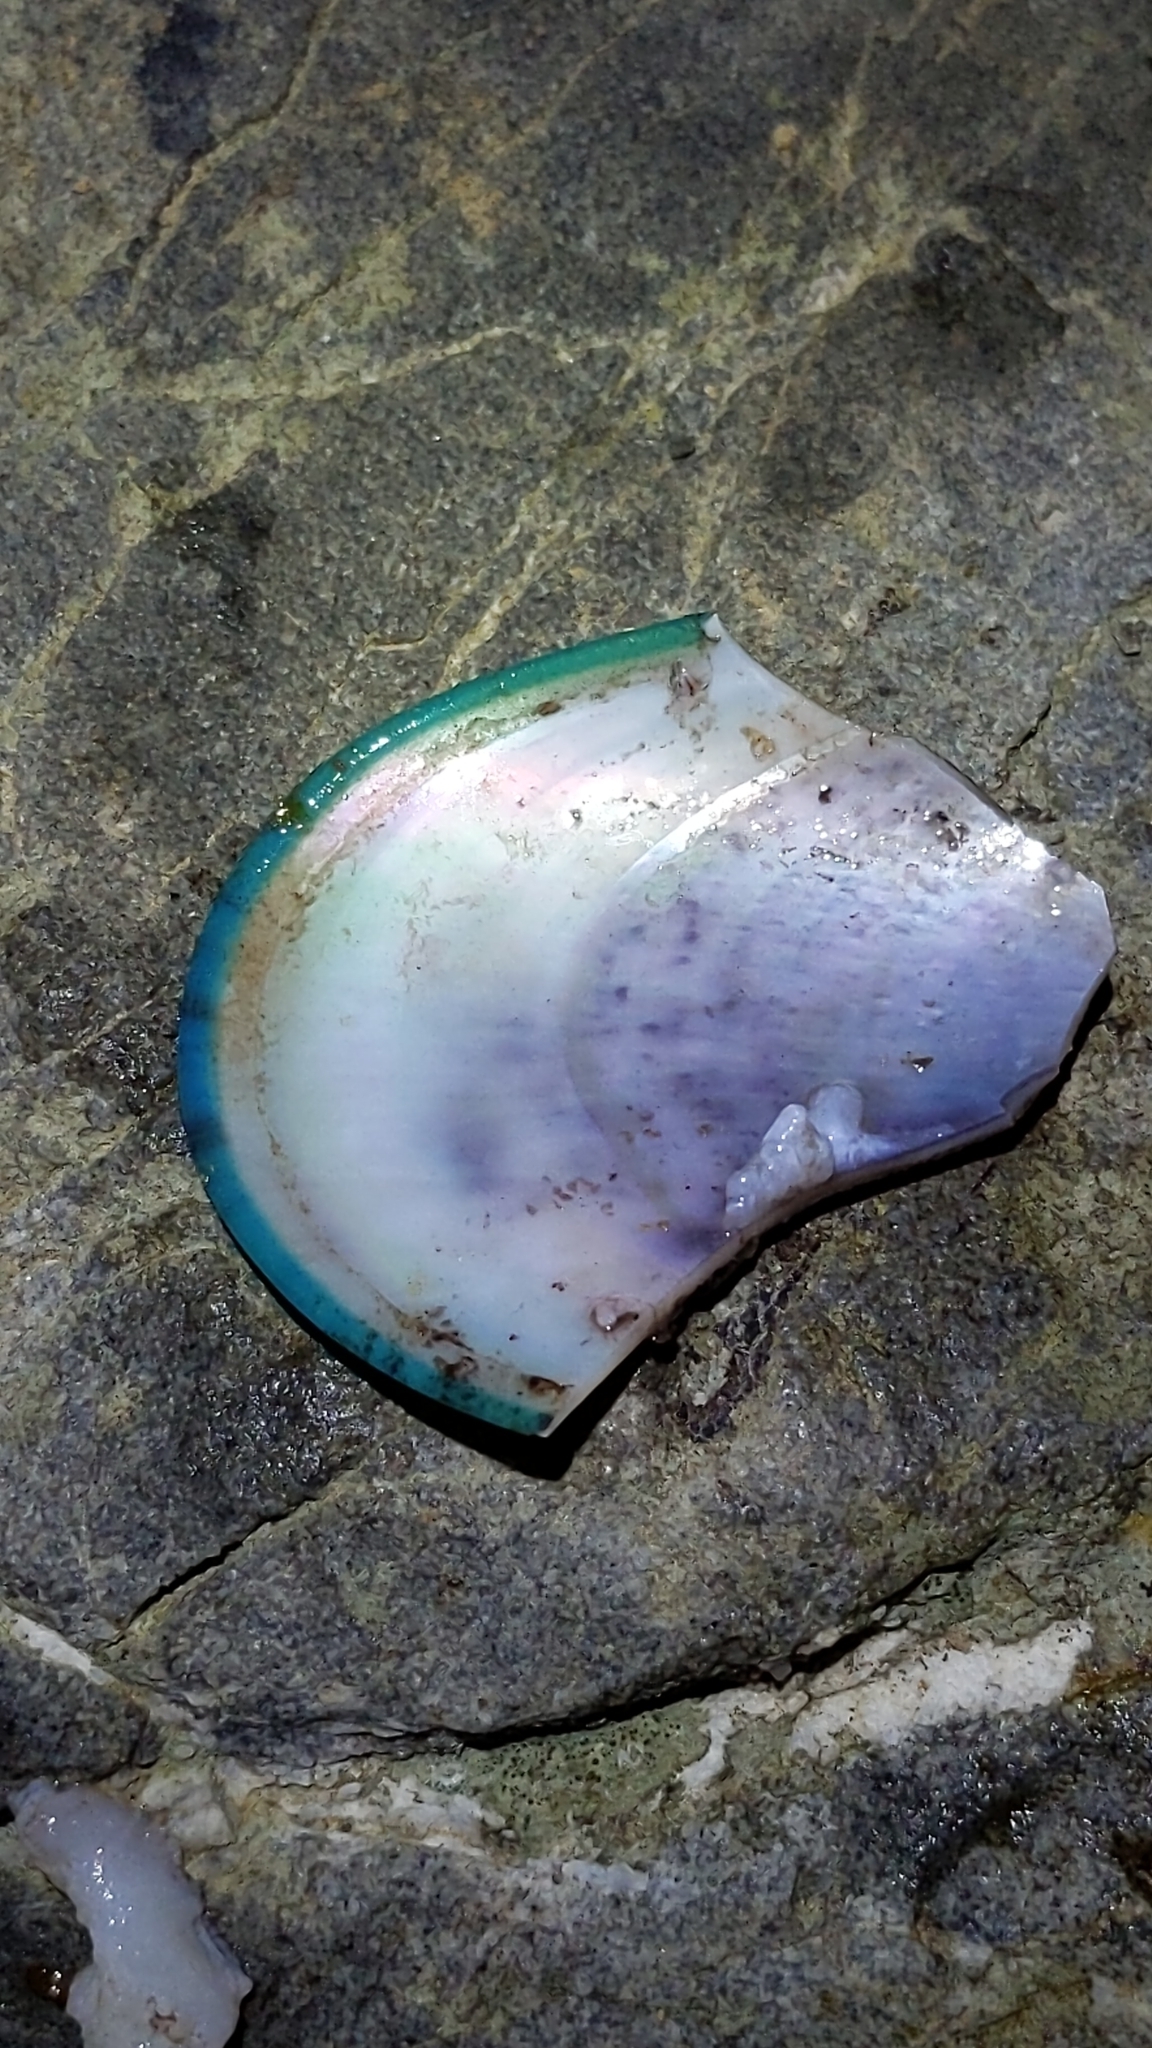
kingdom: Animalia
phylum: Mollusca
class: Bivalvia
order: Mytilida
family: Mytilidae
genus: Perna
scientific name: Perna canaliculus
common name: New zealand greenshelltm
